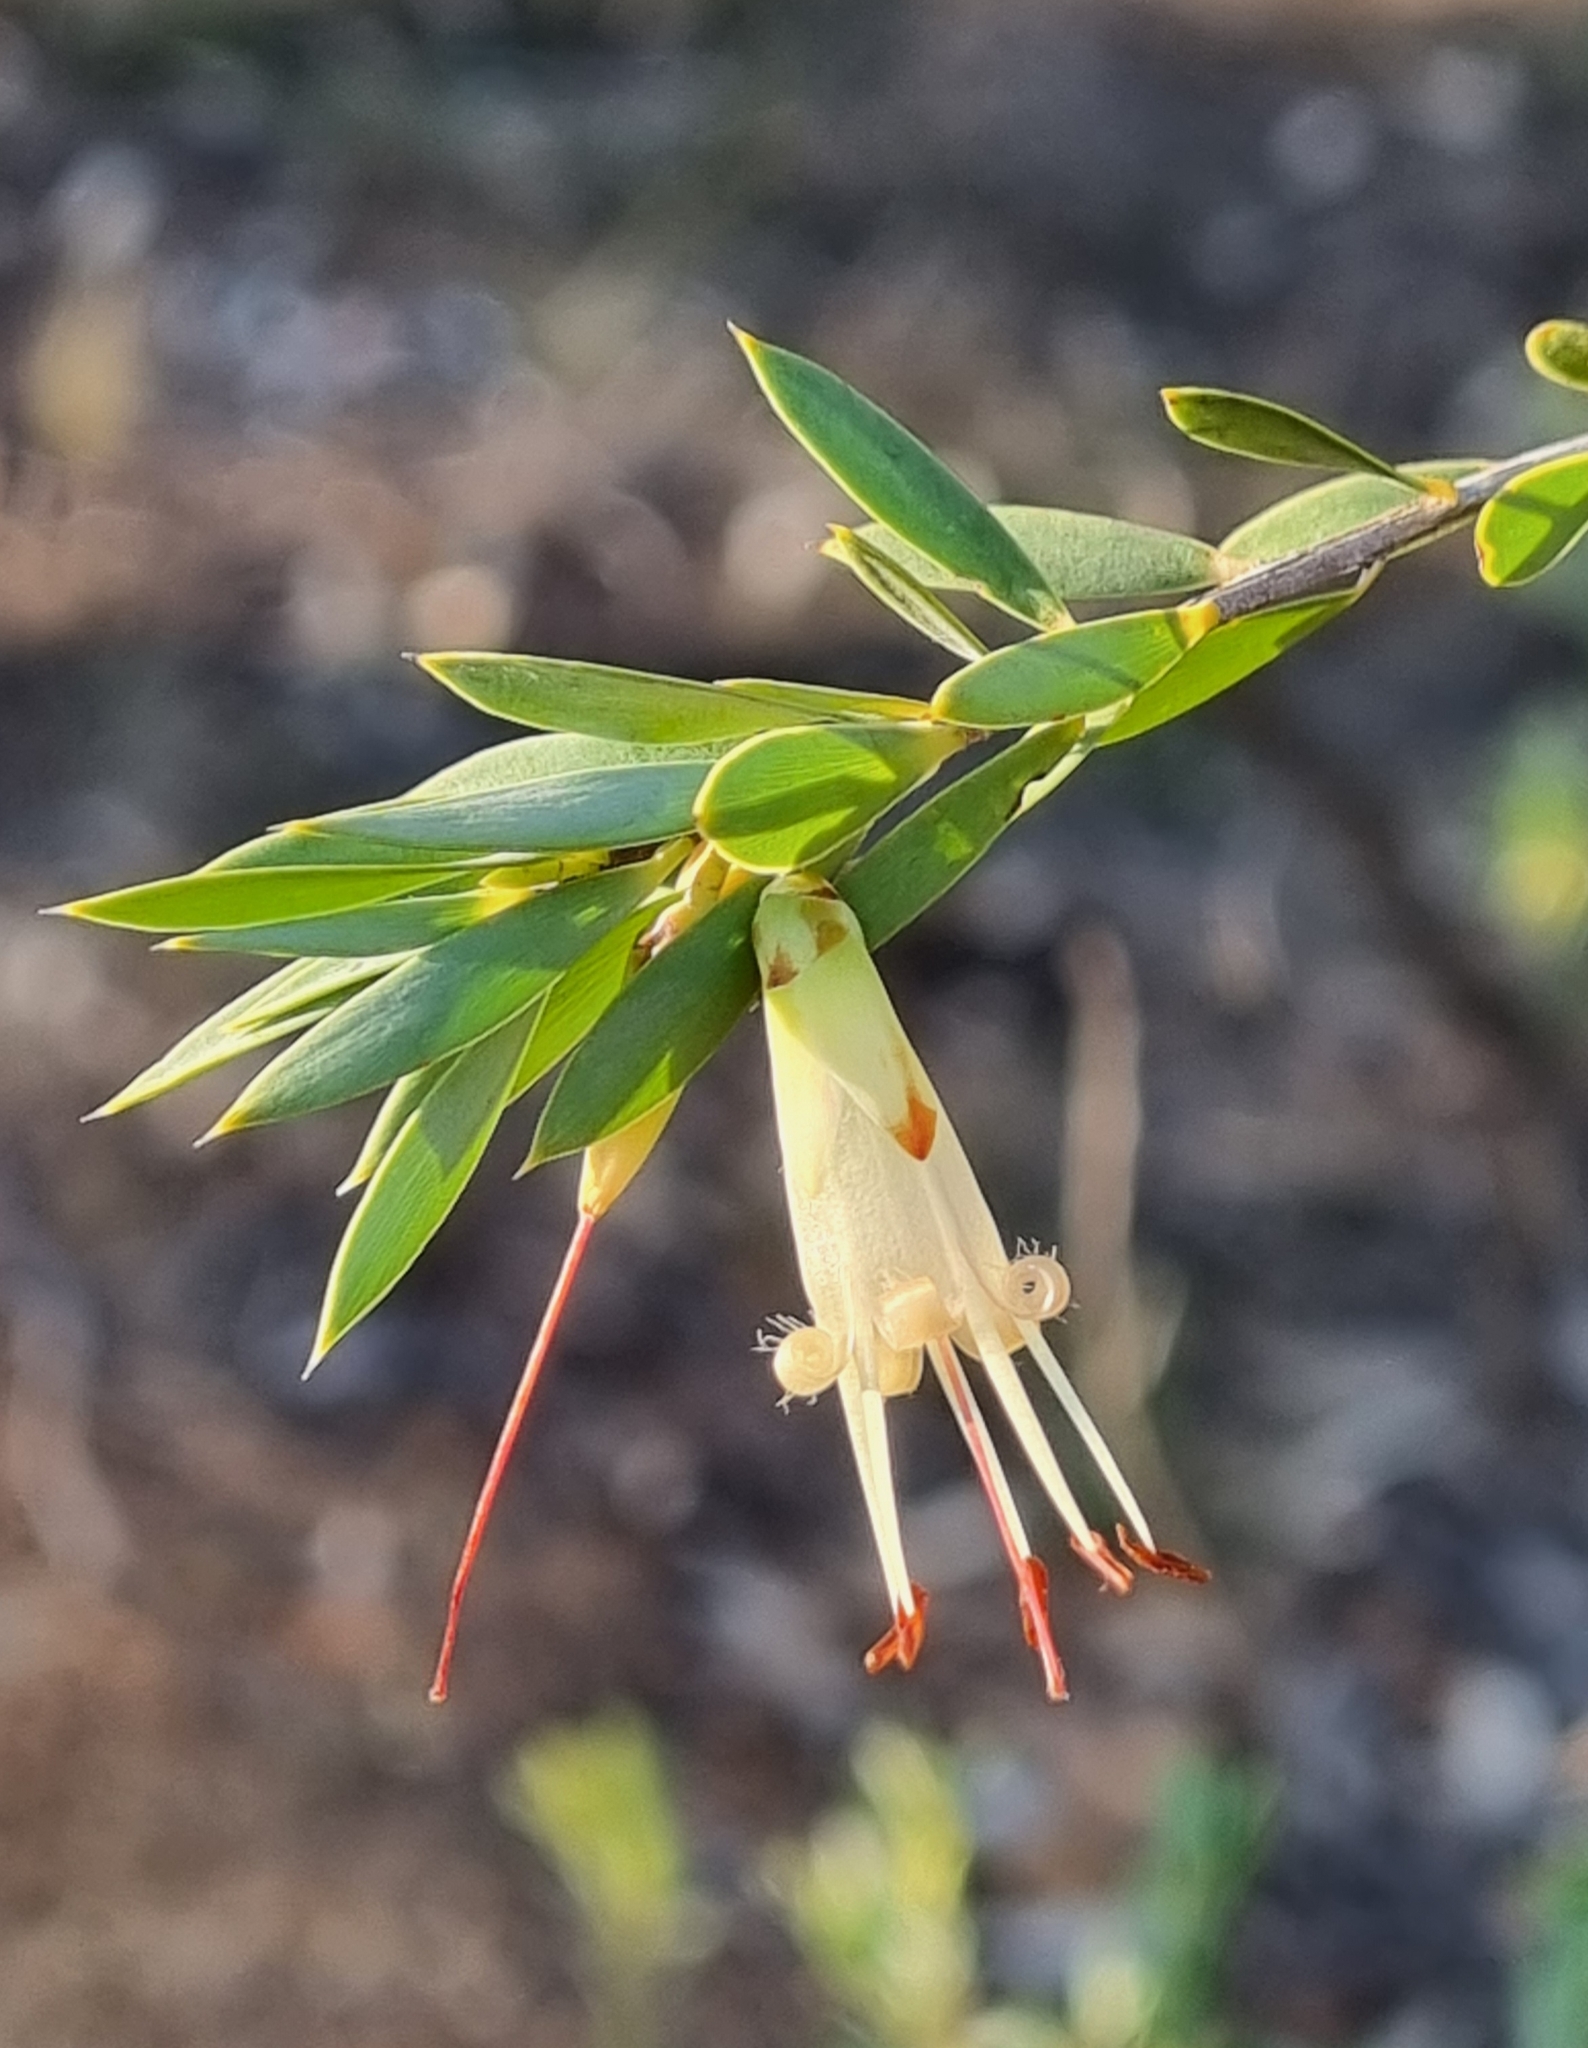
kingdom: Plantae
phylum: Tracheophyta
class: Magnoliopsida
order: Ericales
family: Ericaceae
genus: Styphelia
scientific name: Styphelia triflora
